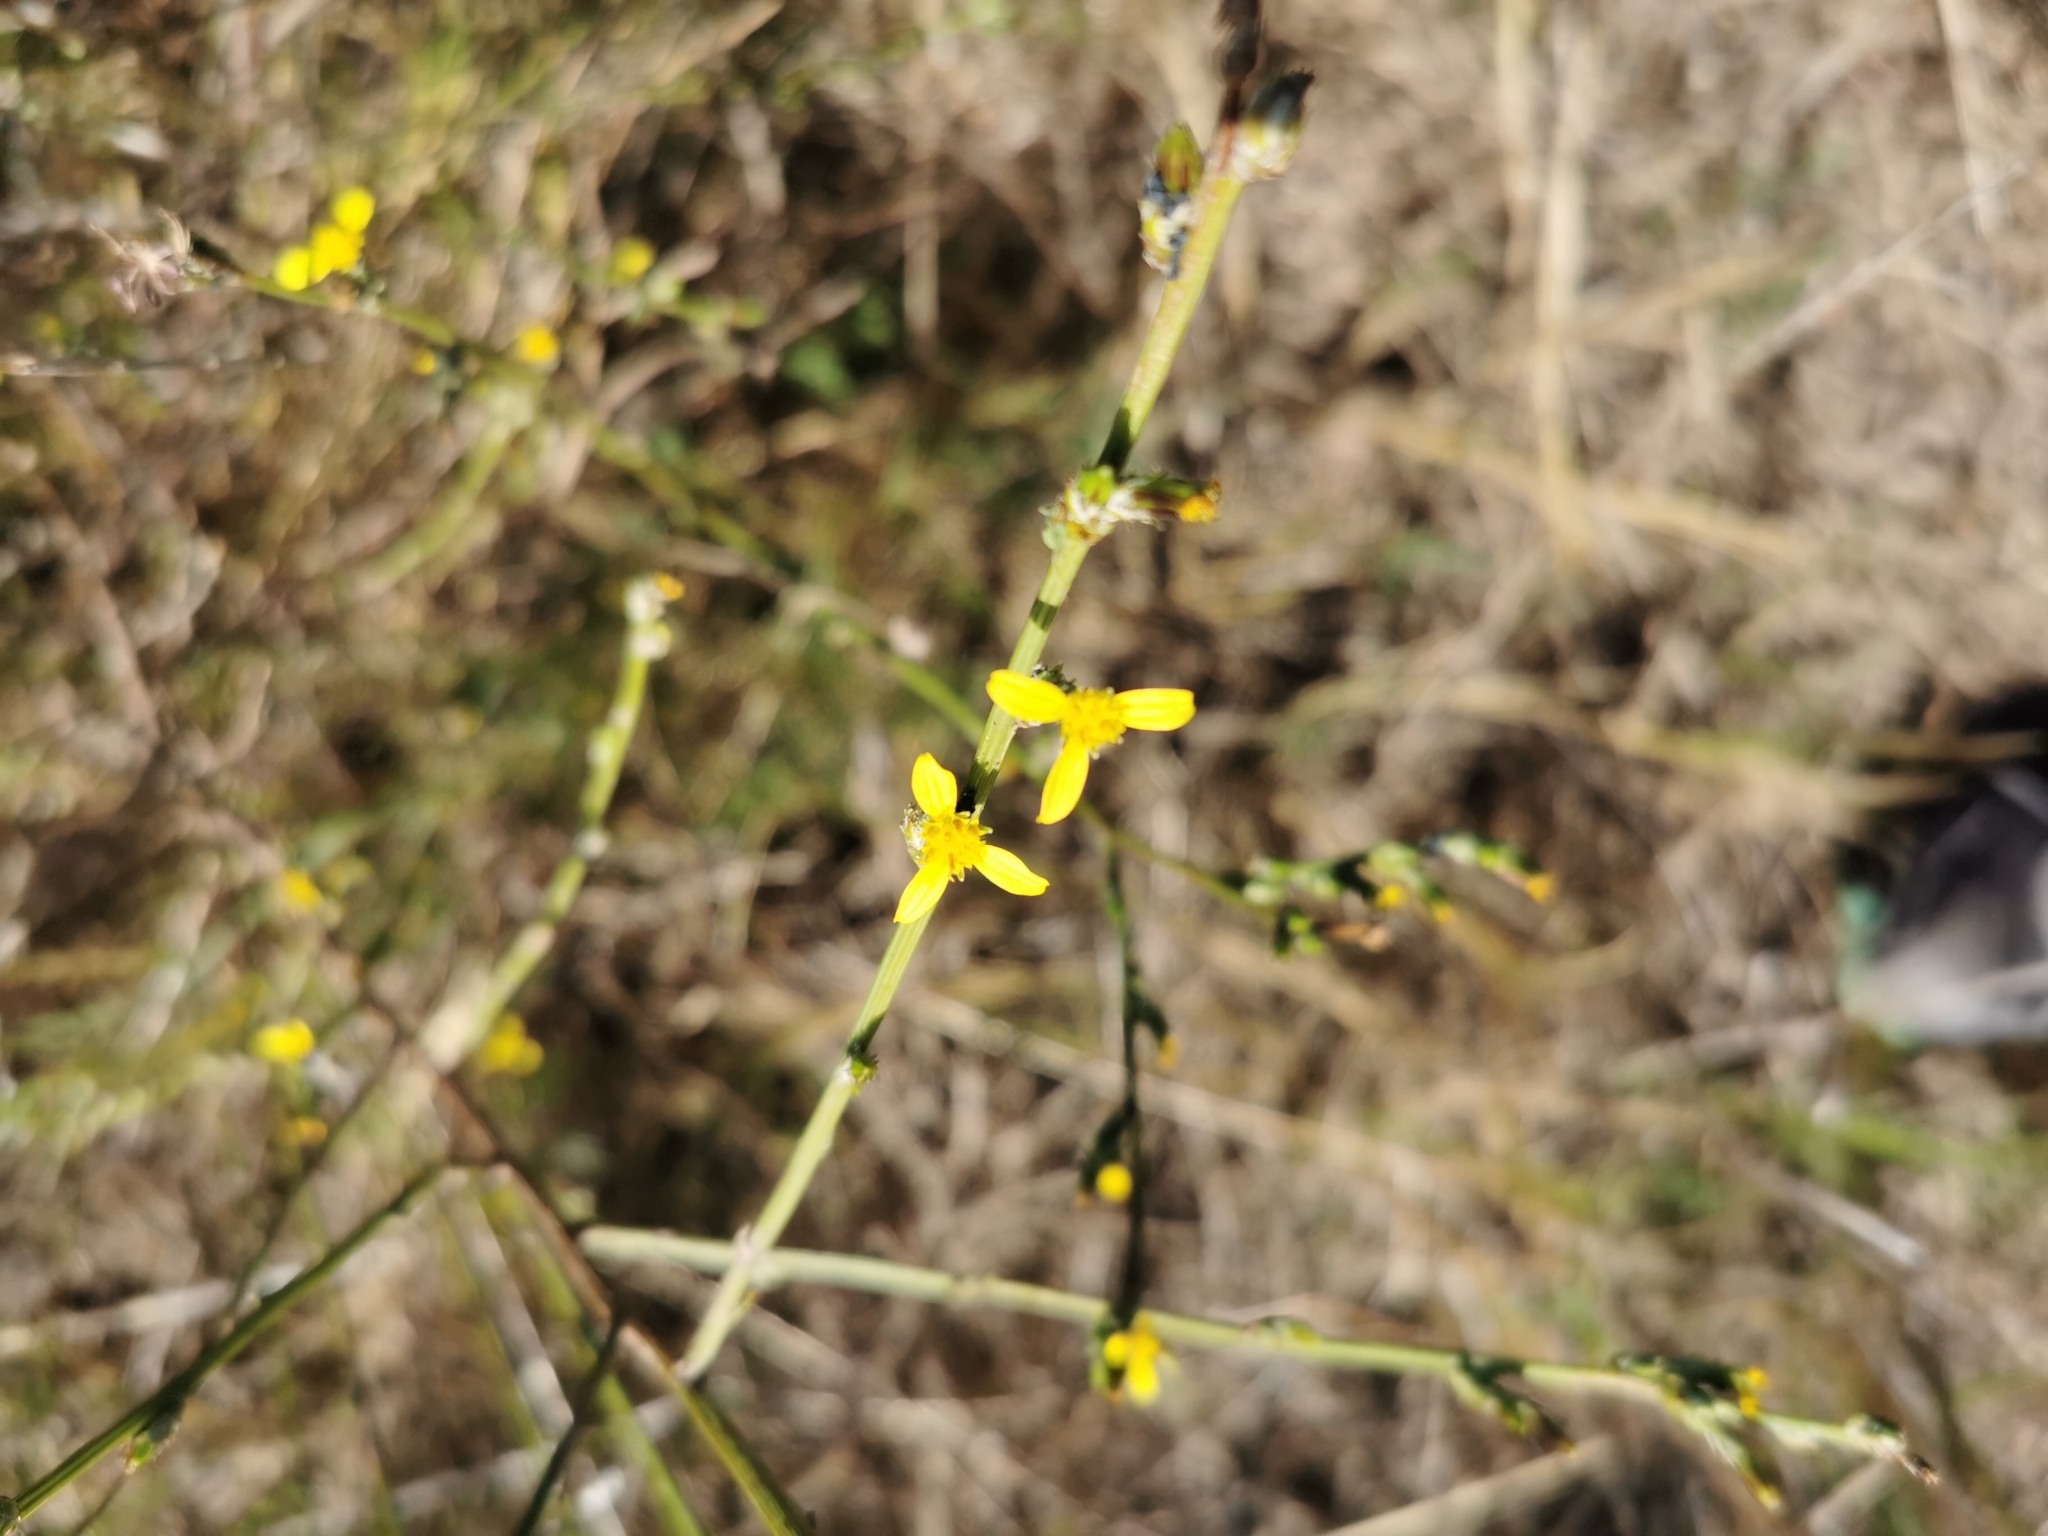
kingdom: Plantae
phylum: Tracheophyta
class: Magnoliopsida
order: Asterales
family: Asteraceae
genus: Senecio
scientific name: Senecio pubigerus
